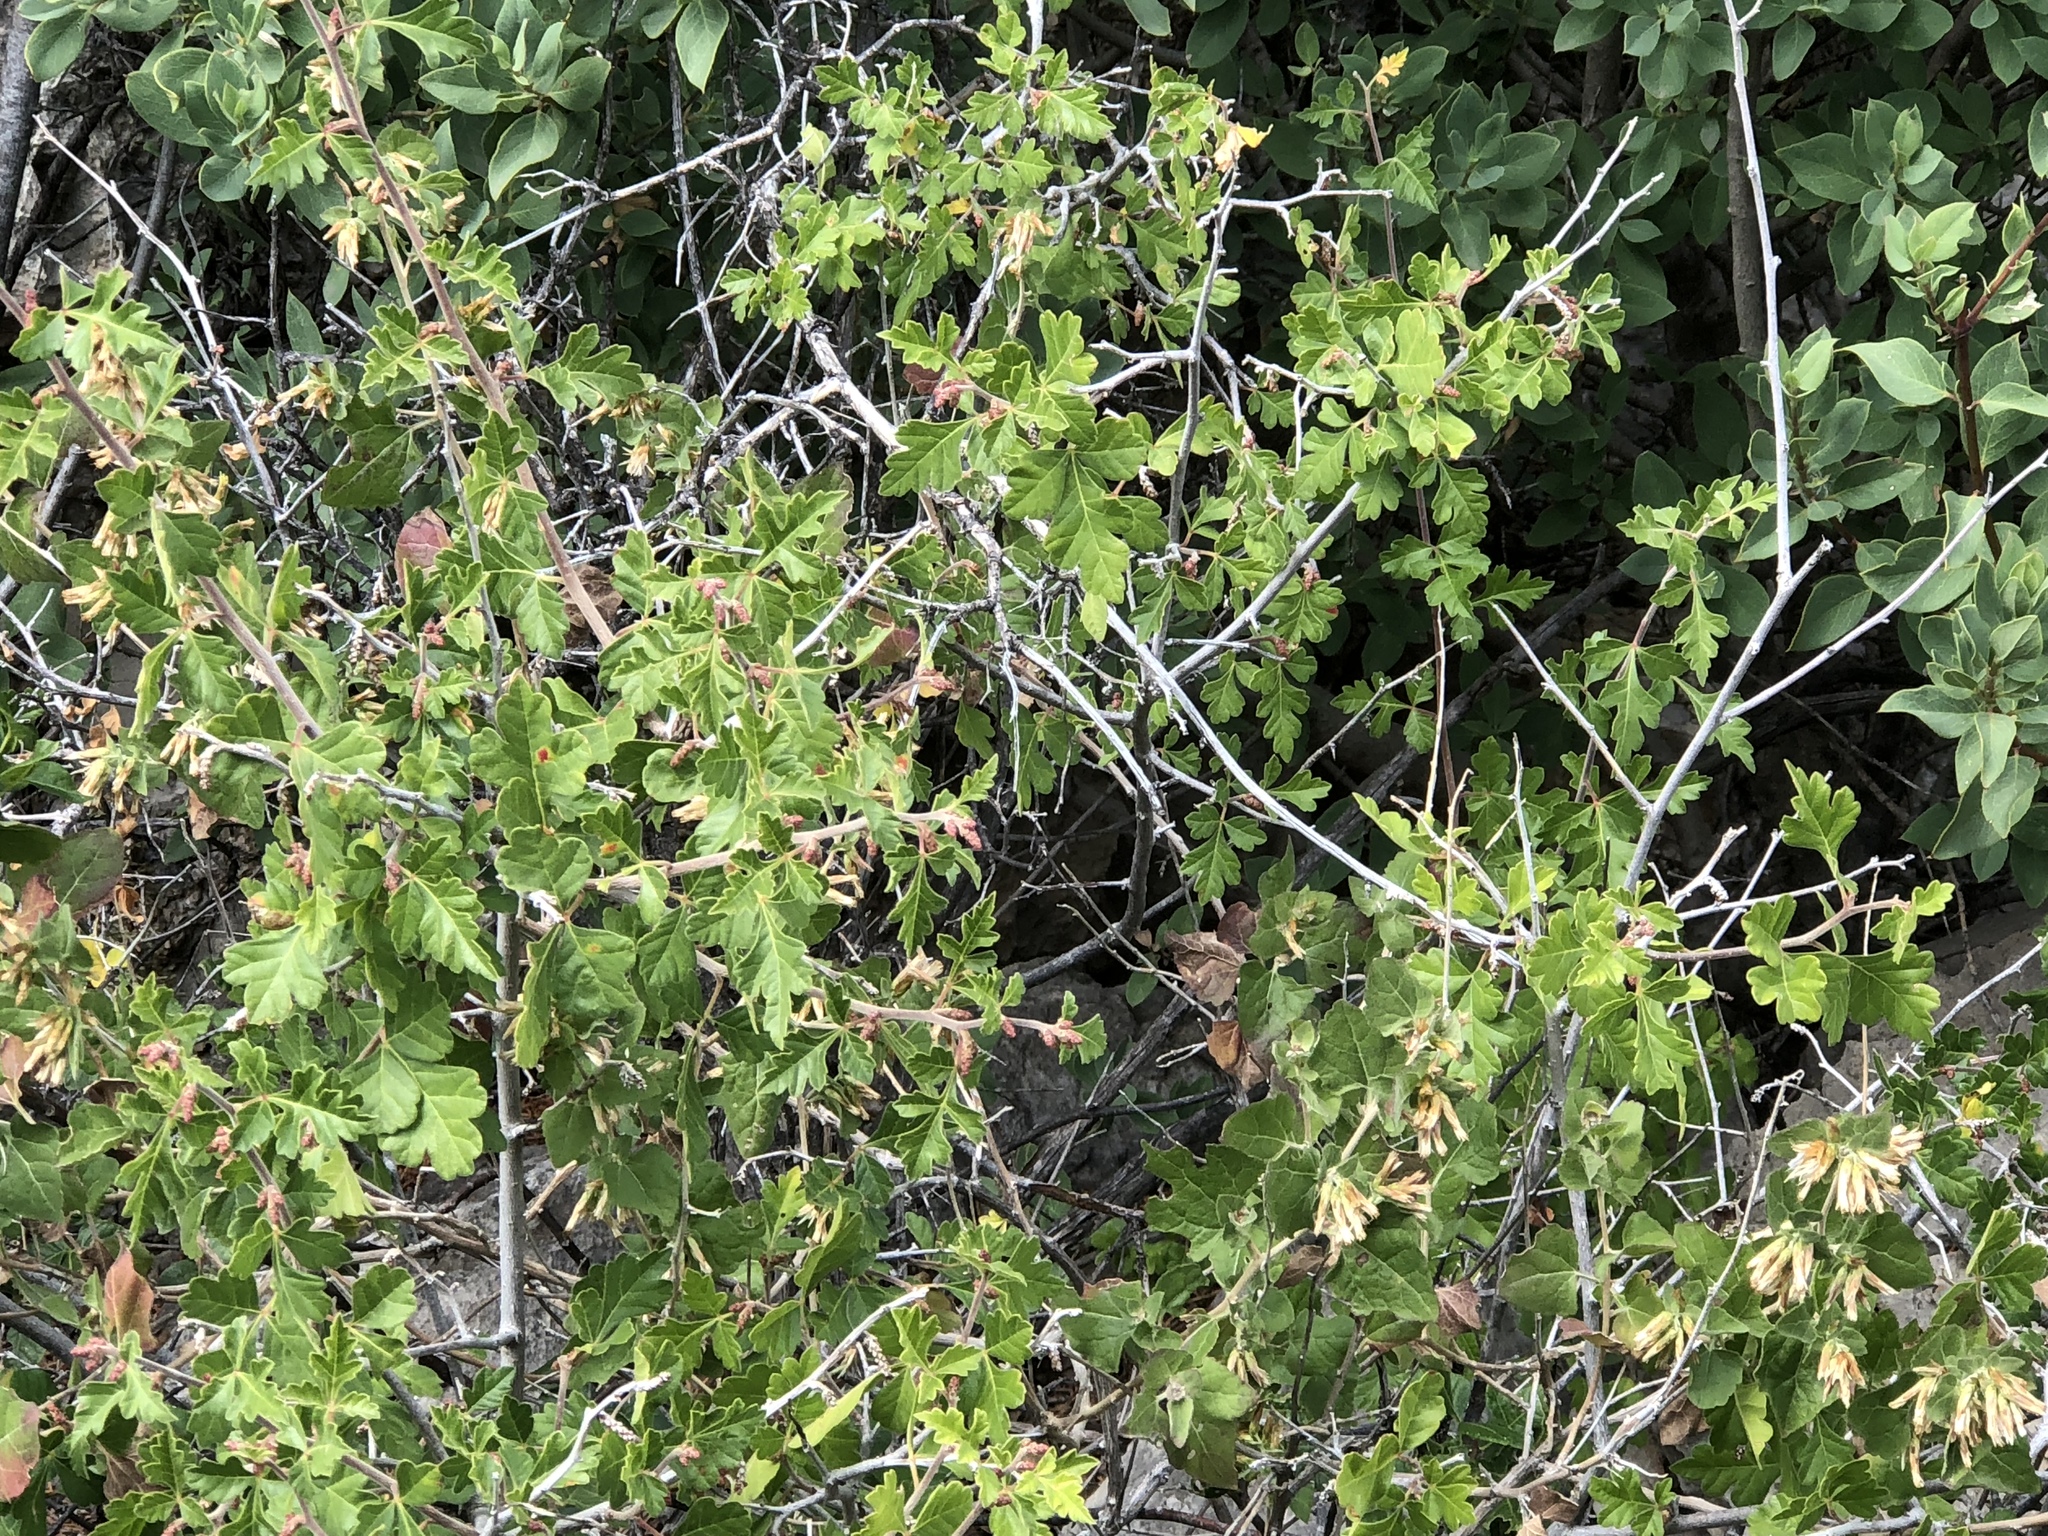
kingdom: Plantae
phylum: Tracheophyta
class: Magnoliopsida
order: Sapindales
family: Anacardiaceae
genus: Rhus
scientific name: Rhus aromatica
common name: Aromatic sumac
